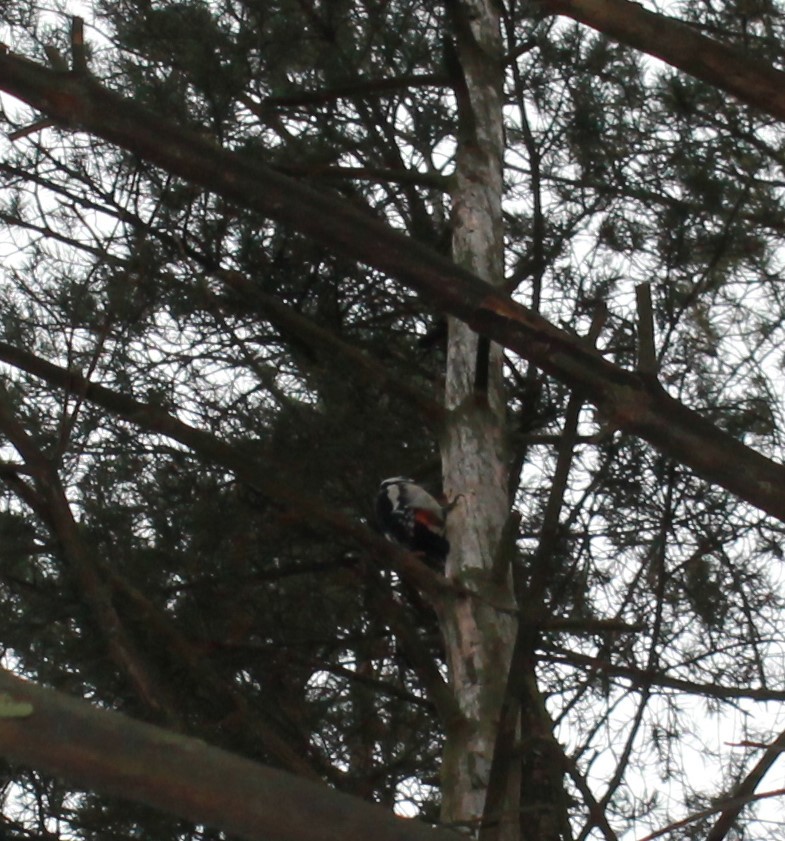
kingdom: Animalia
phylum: Chordata
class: Aves
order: Anseriformes
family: Anatidae
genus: Tadorna
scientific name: Tadorna ferruginea
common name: Ruddy shelduck
